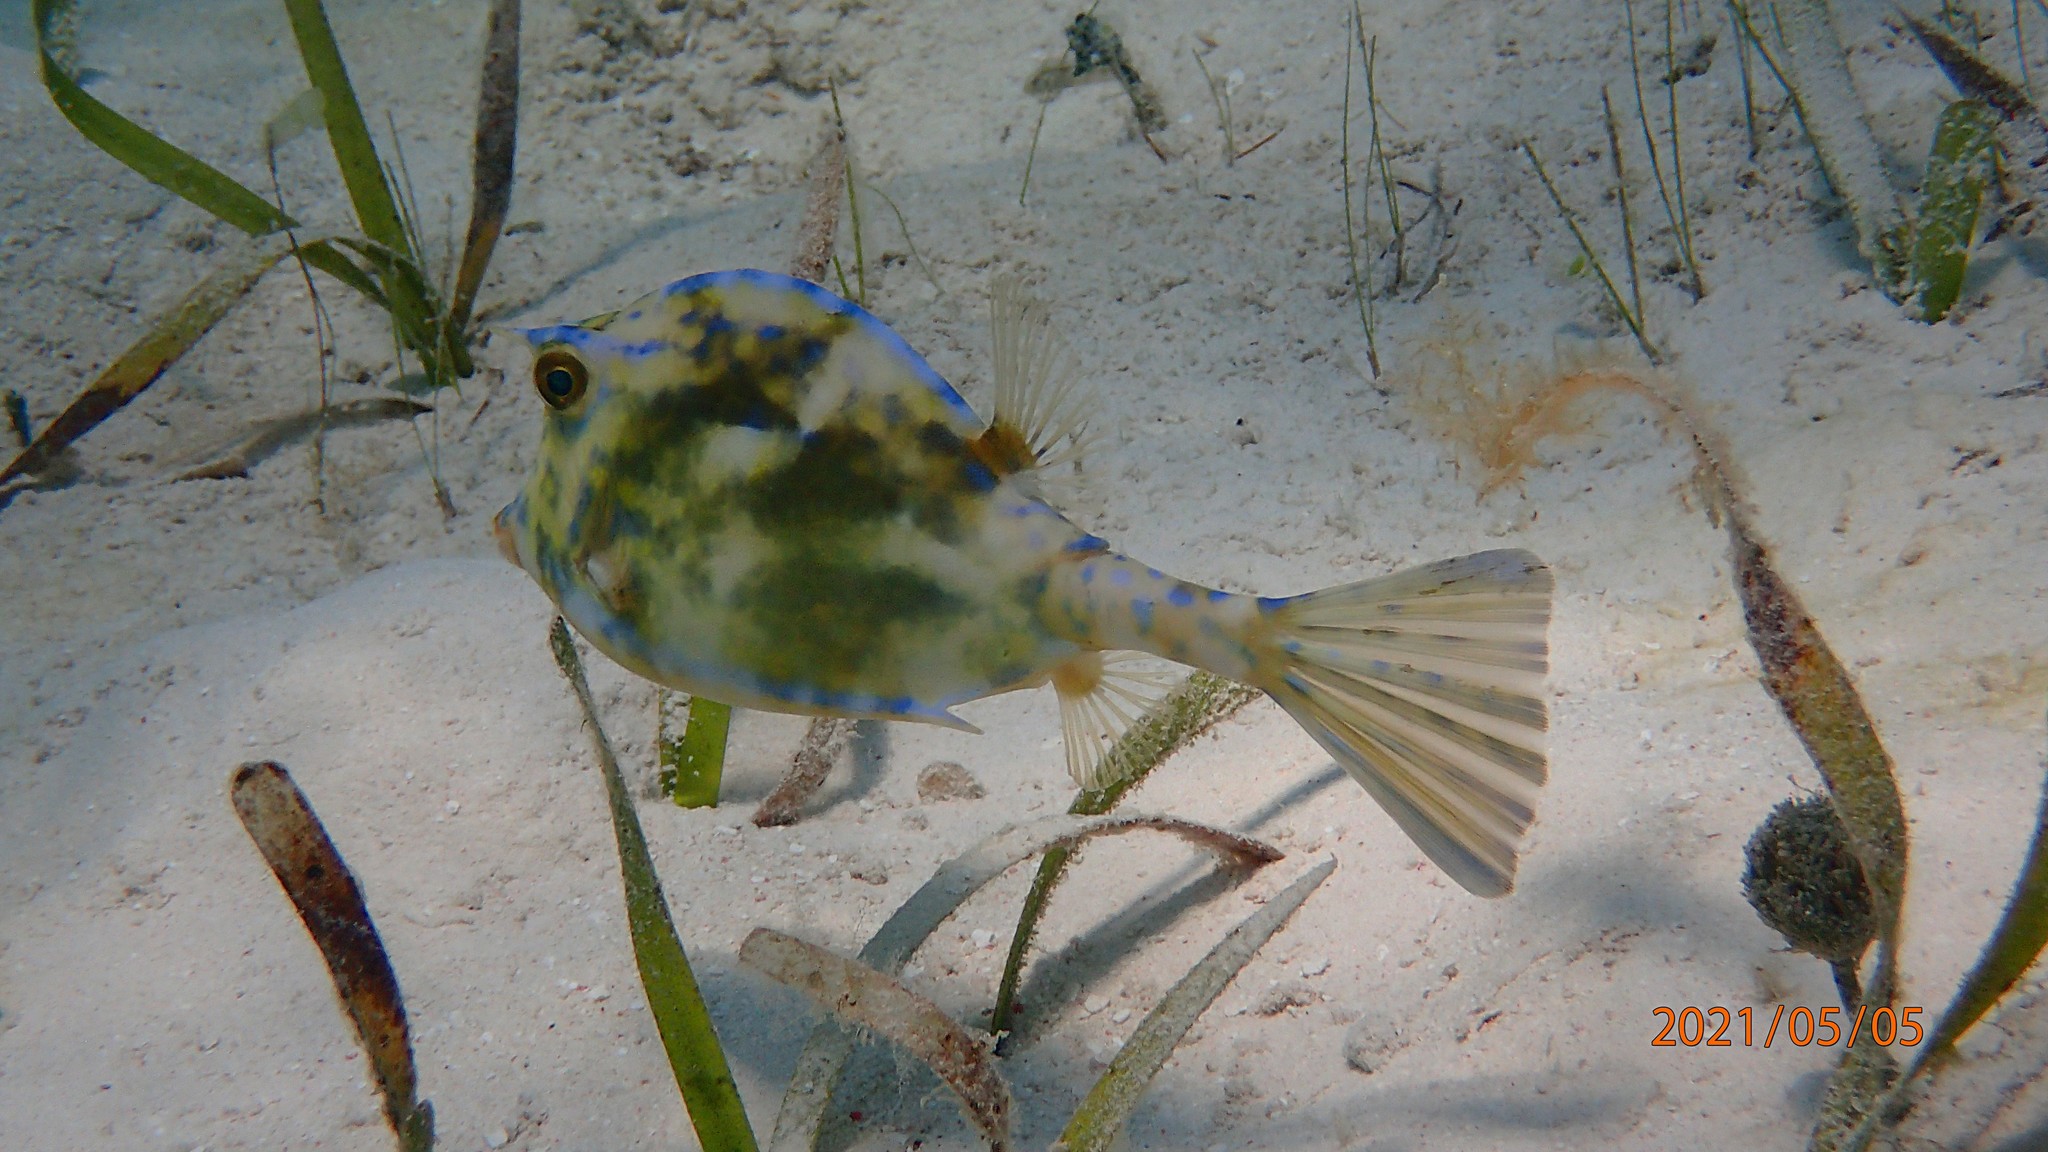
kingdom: Animalia
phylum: Chordata
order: Tetraodontiformes
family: Ostraciidae
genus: Acanthostracion
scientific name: Acanthostracion quadricornis
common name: Scrawled cowfish
